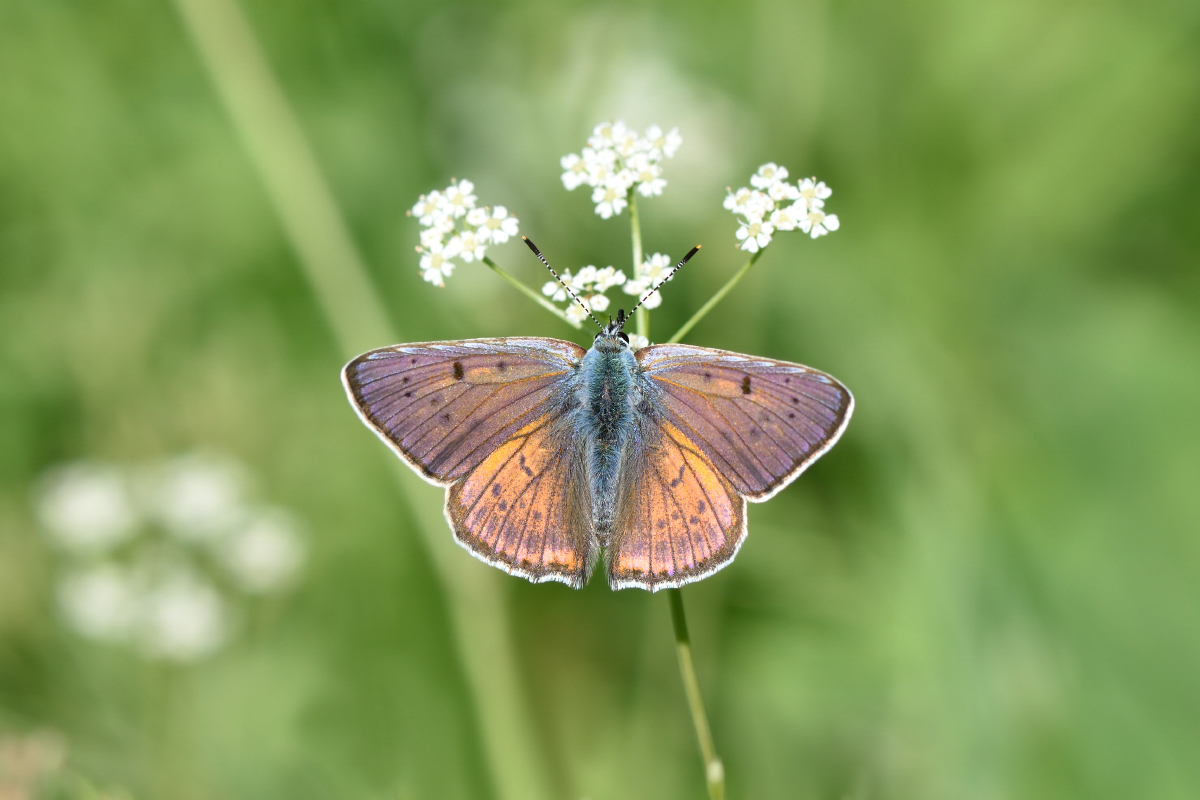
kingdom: Animalia
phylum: Arthropoda
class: Insecta
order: Lepidoptera
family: Lycaenidae
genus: Lycaena
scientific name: Lycaena alciphron
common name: Purple-shot copper
